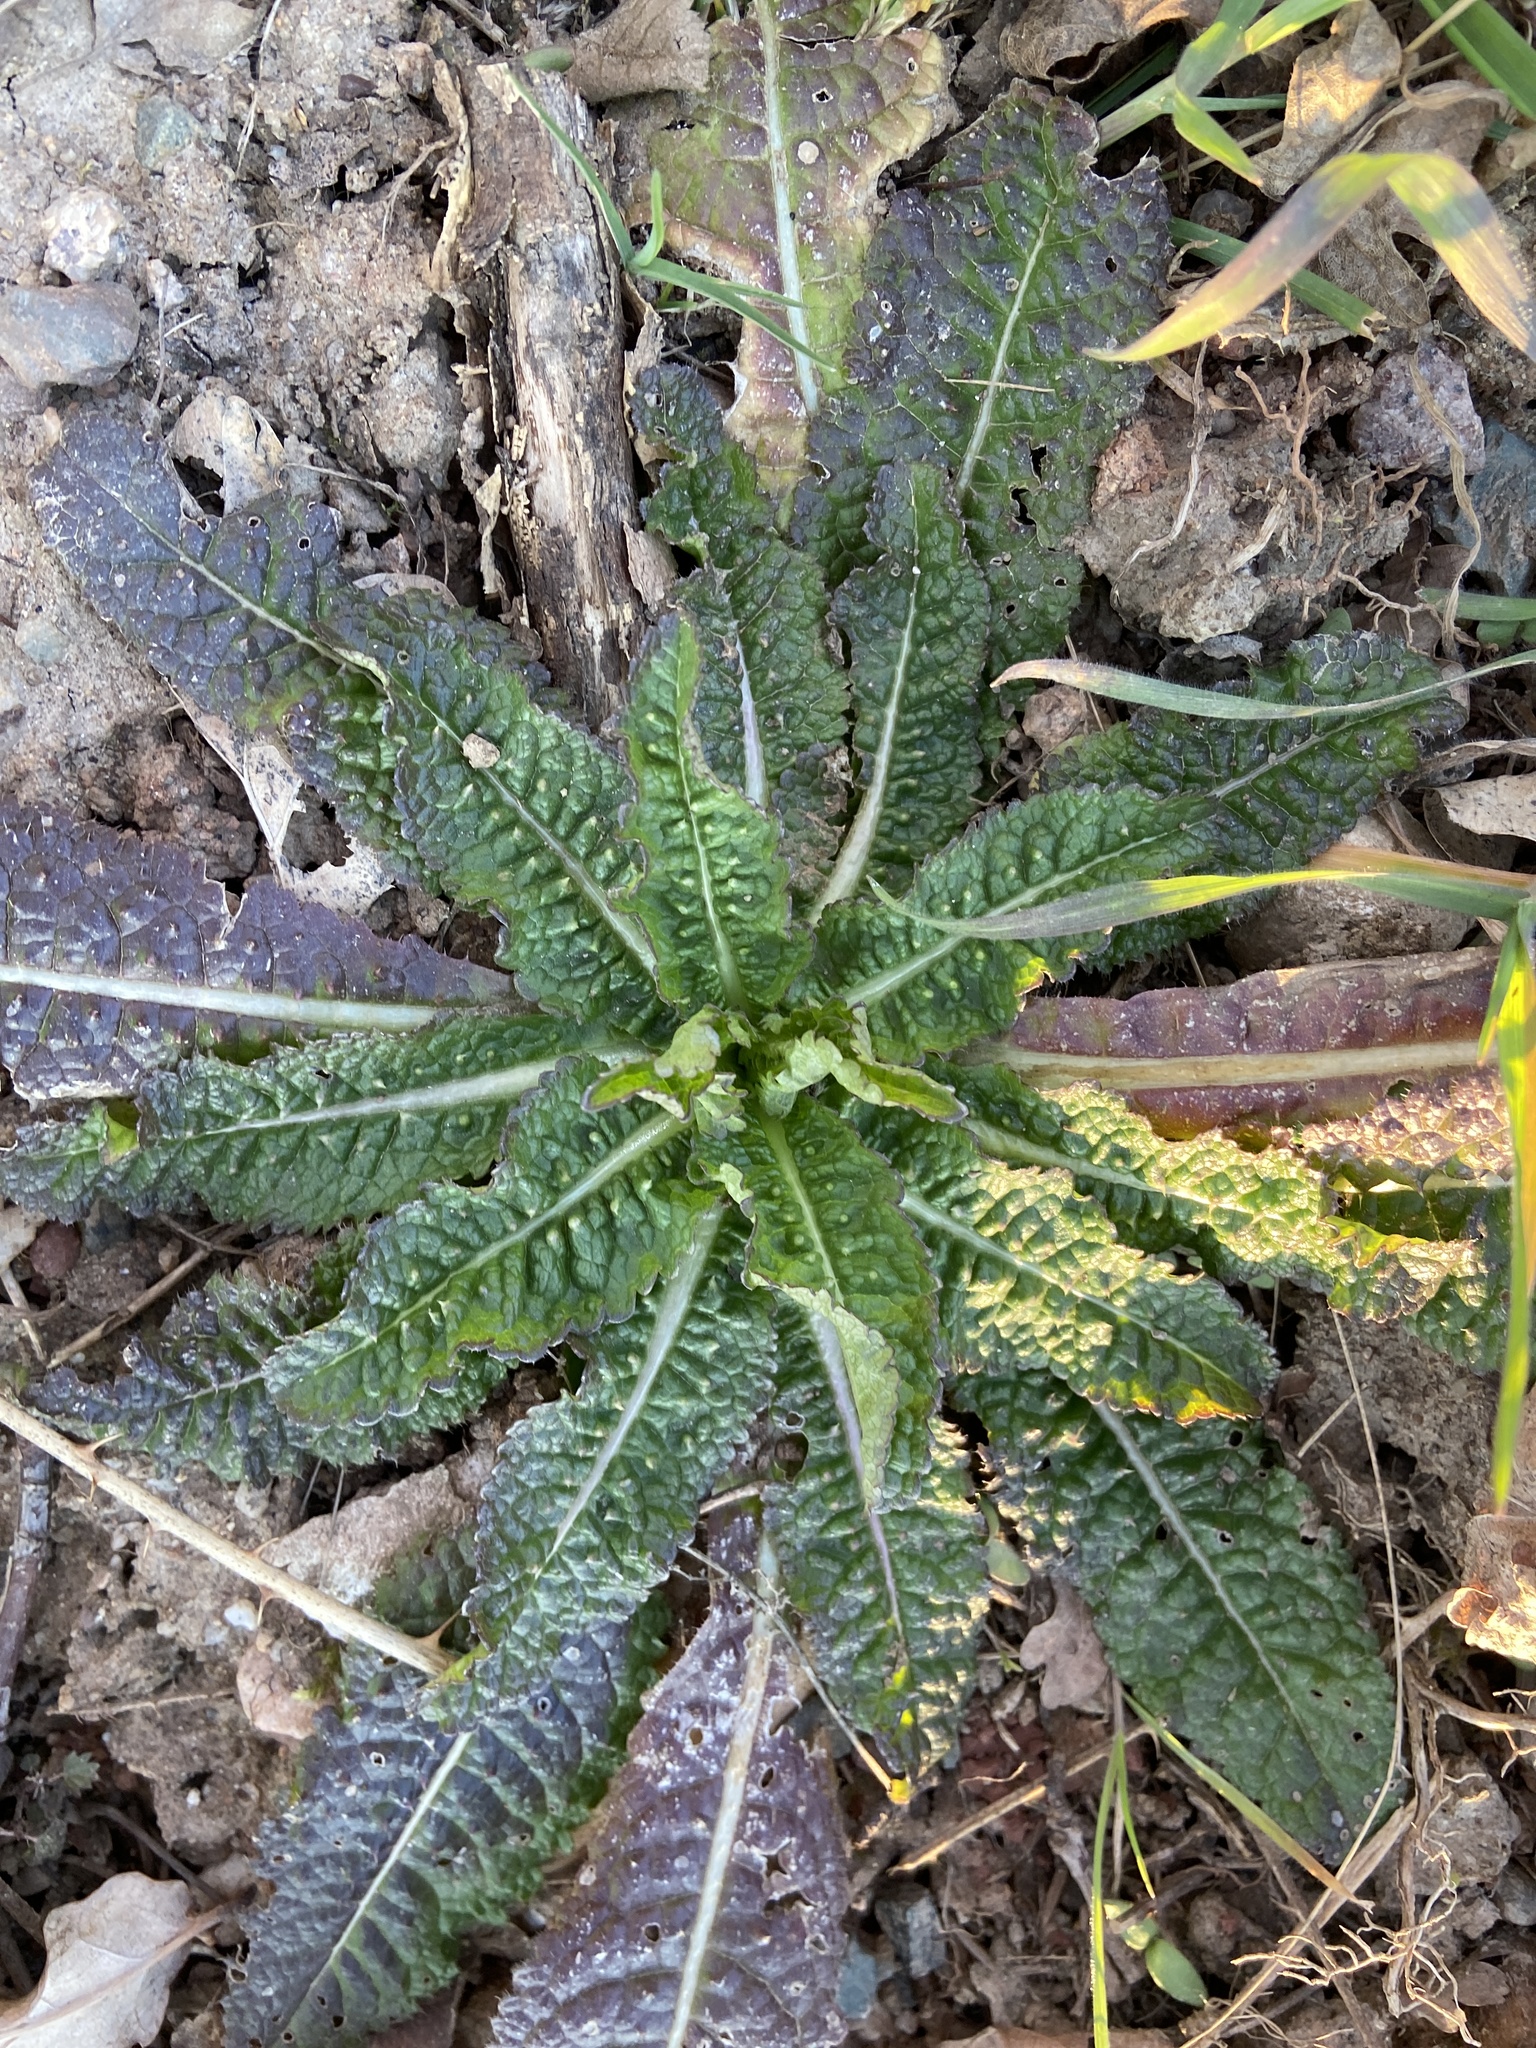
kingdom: Plantae
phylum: Tracheophyta
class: Magnoliopsida
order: Dipsacales
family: Caprifoliaceae
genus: Dipsacus
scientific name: Dipsacus fullonum
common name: Teasel
